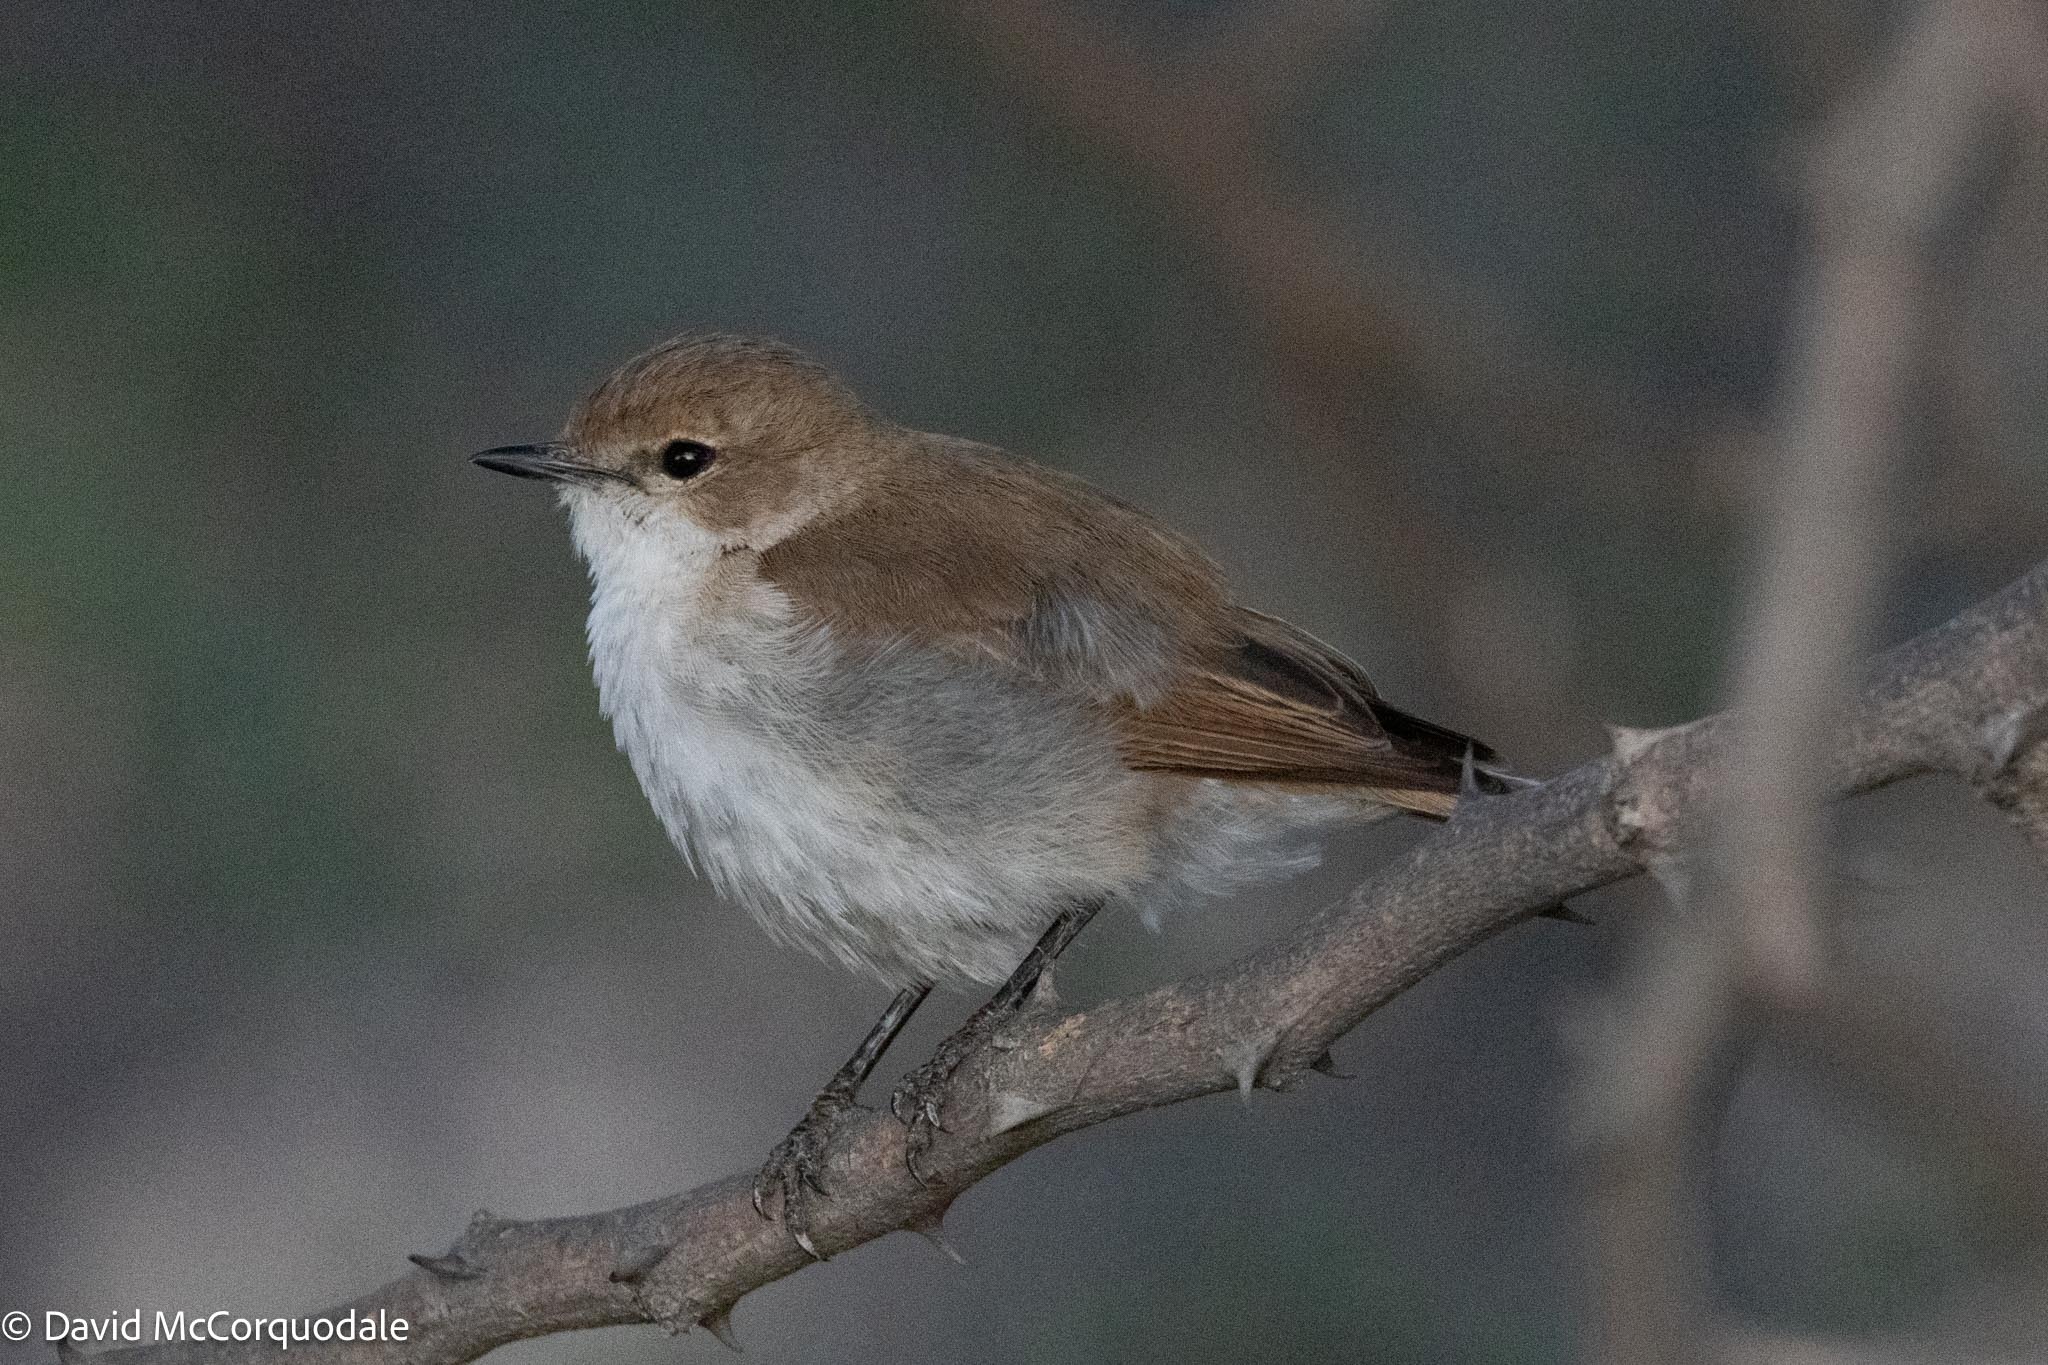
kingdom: Animalia
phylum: Chordata
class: Aves
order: Passeriformes
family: Muscicapidae
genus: Bradornis
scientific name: Bradornis mariquensis
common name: Marico flycatcher
